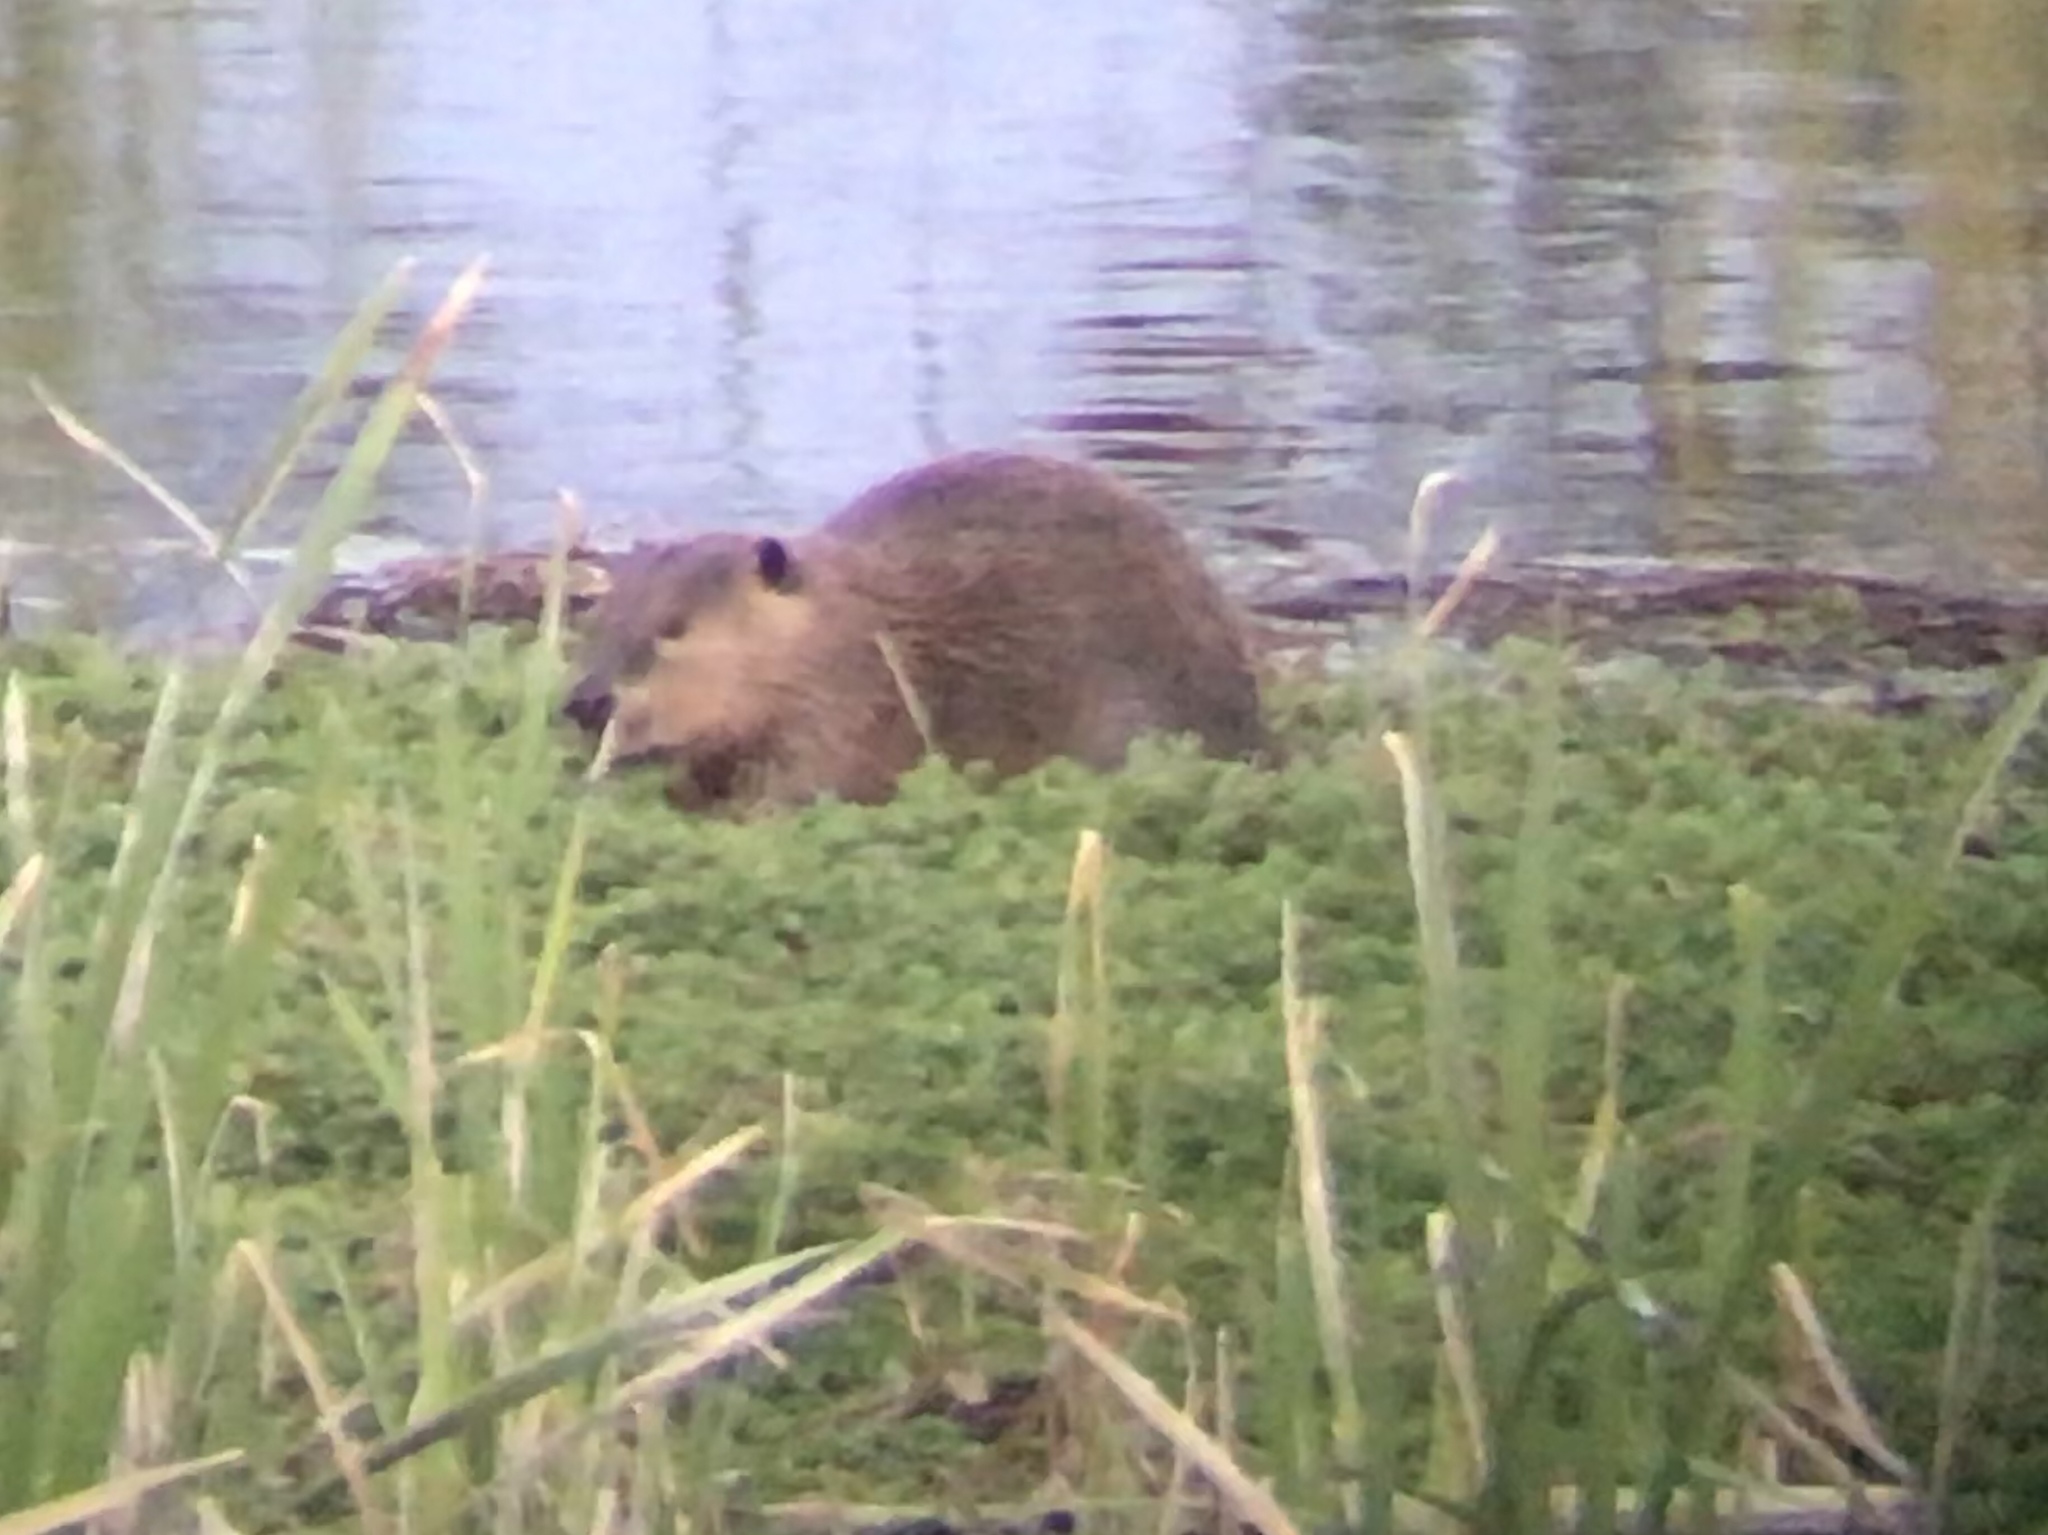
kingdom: Animalia
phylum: Chordata
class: Mammalia
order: Rodentia
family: Castoridae
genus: Castor
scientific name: Castor canadensis
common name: American beaver
